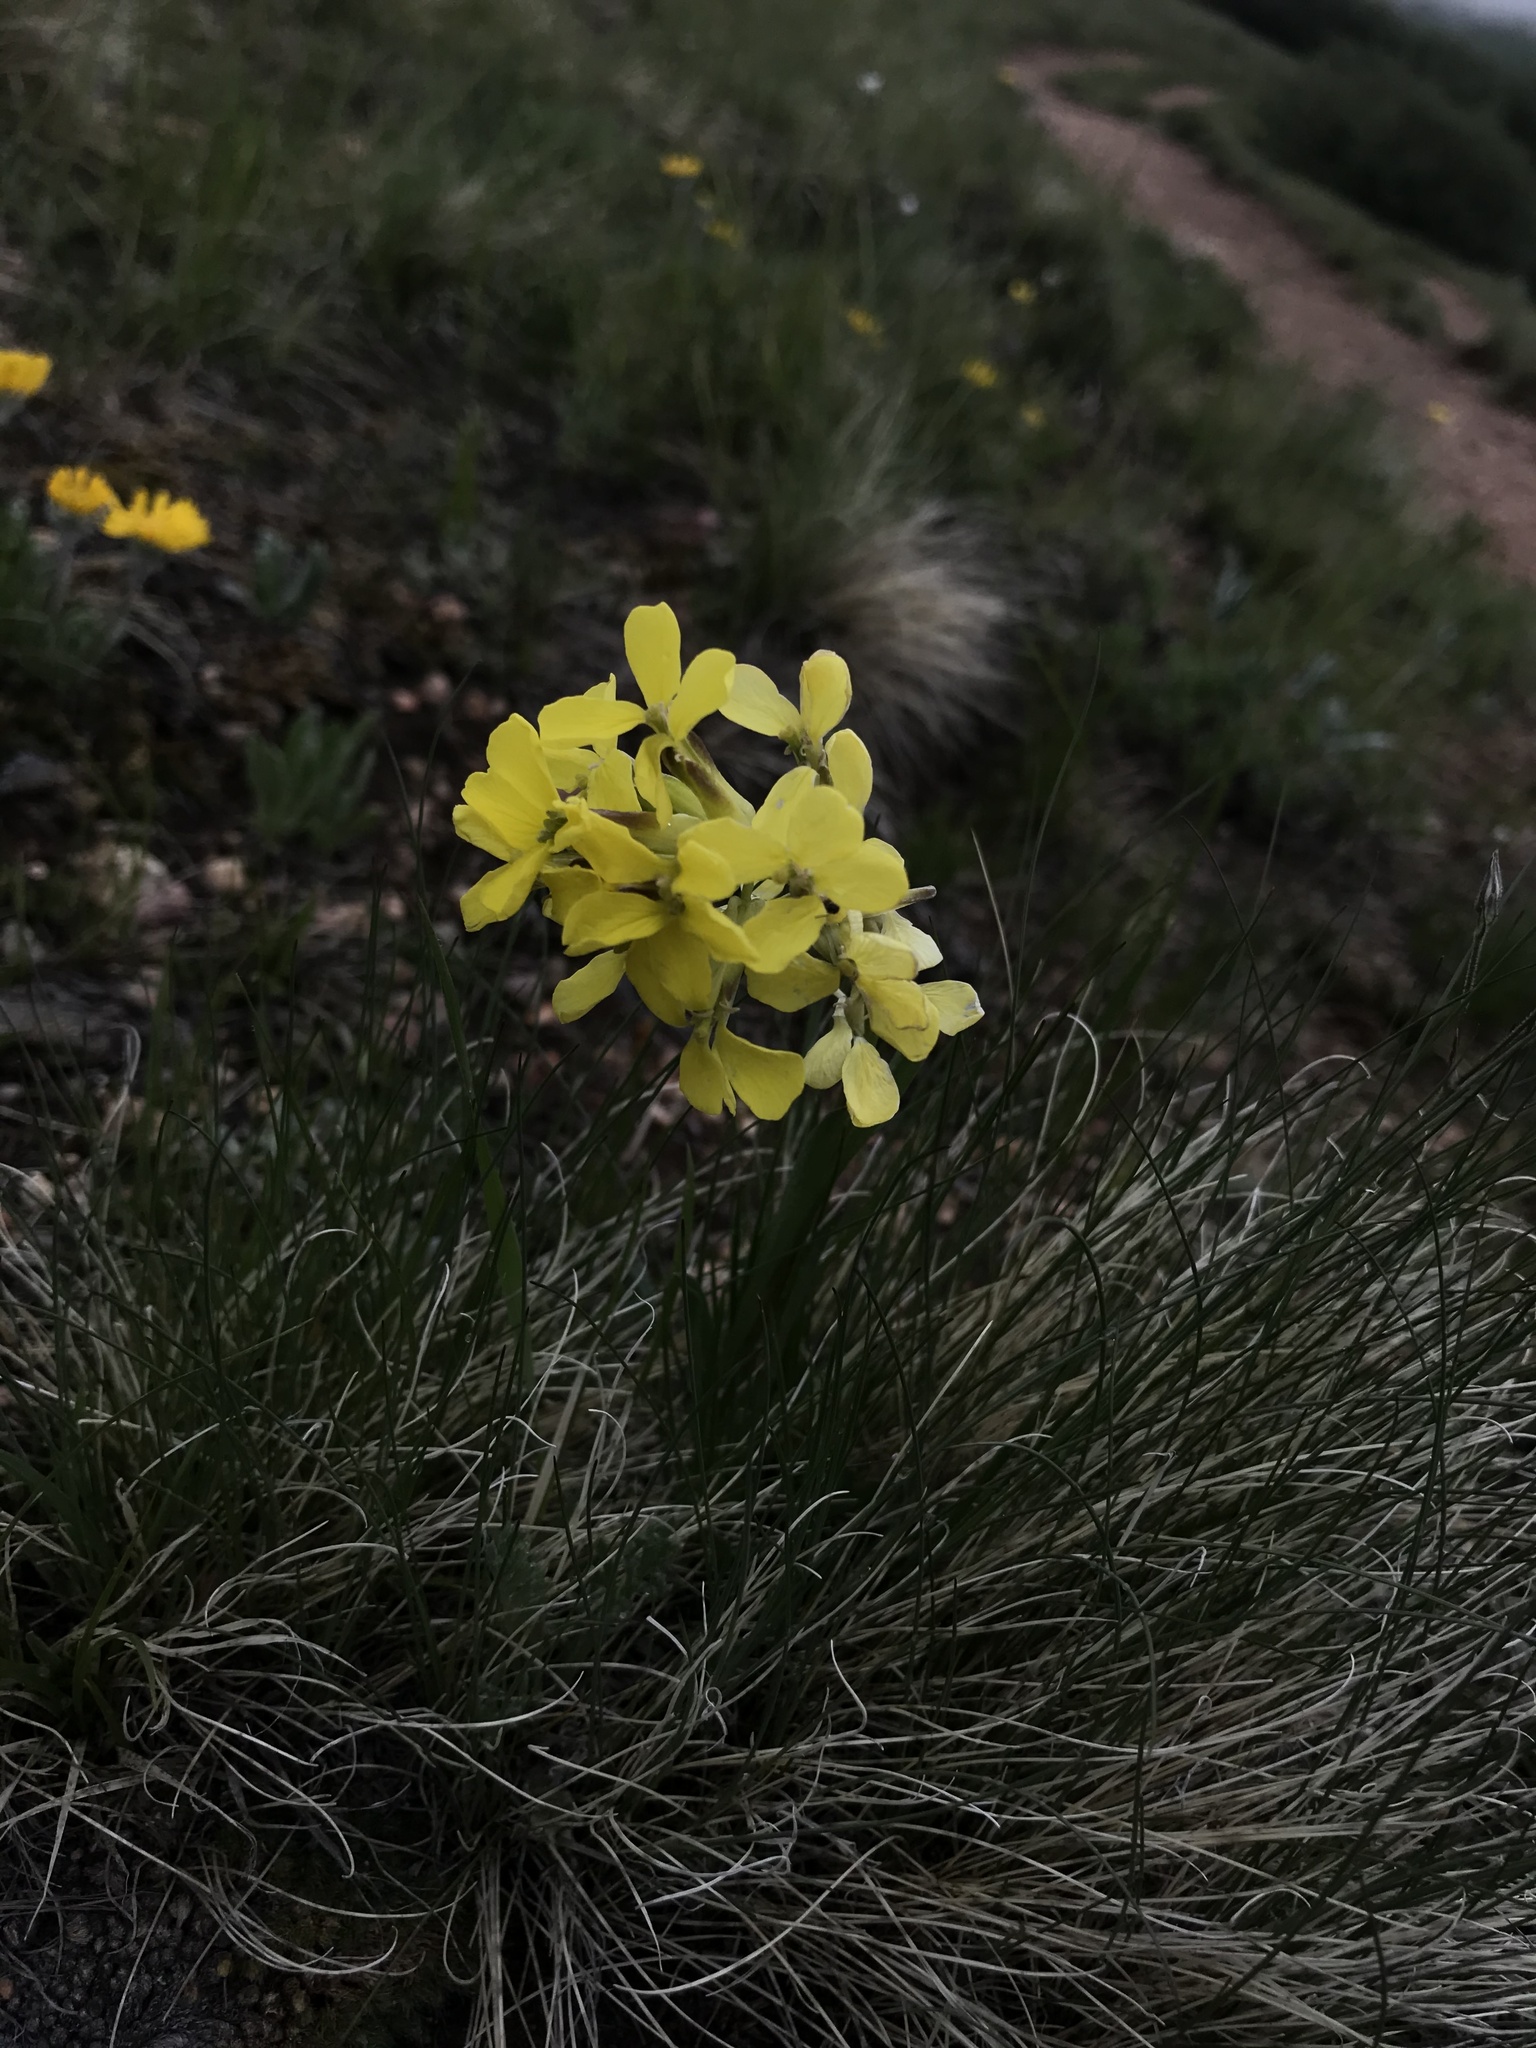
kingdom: Plantae
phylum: Tracheophyta
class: Magnoliopsida
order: Brassicales
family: Brassicaceae
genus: Erysimum
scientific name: Erysimum capitatum
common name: Western wallflower
